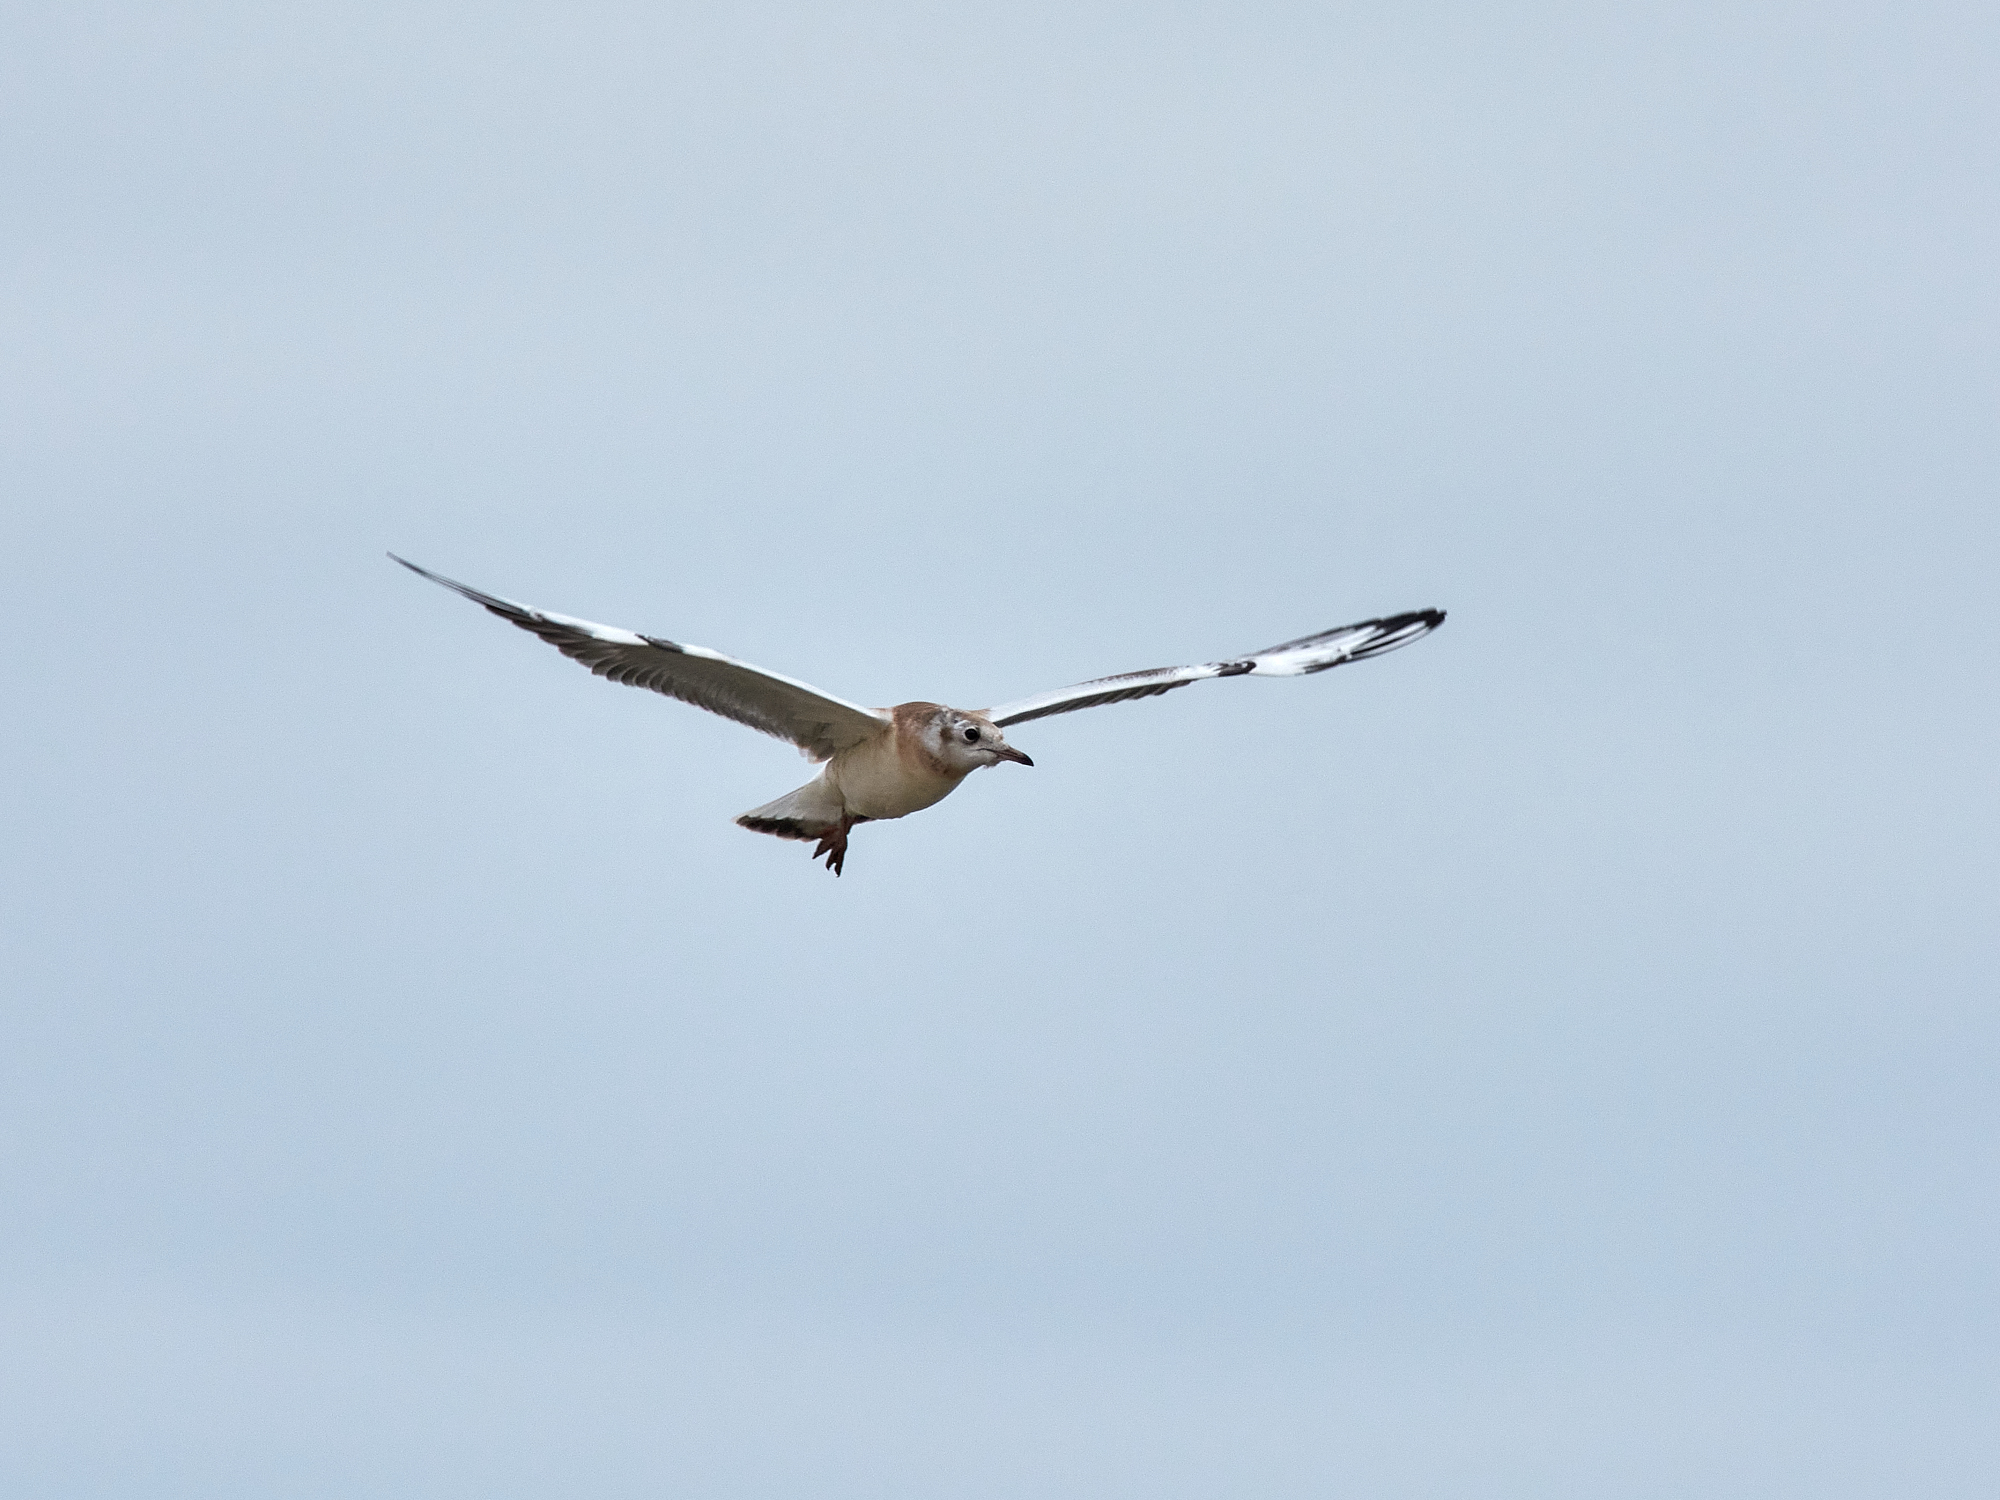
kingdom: Animalia
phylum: Chordata
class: Aves
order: Charadriiformes
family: Laridae
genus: Chroicocephalus
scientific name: Chroicocephalus ridibundus
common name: Black-headed gull
